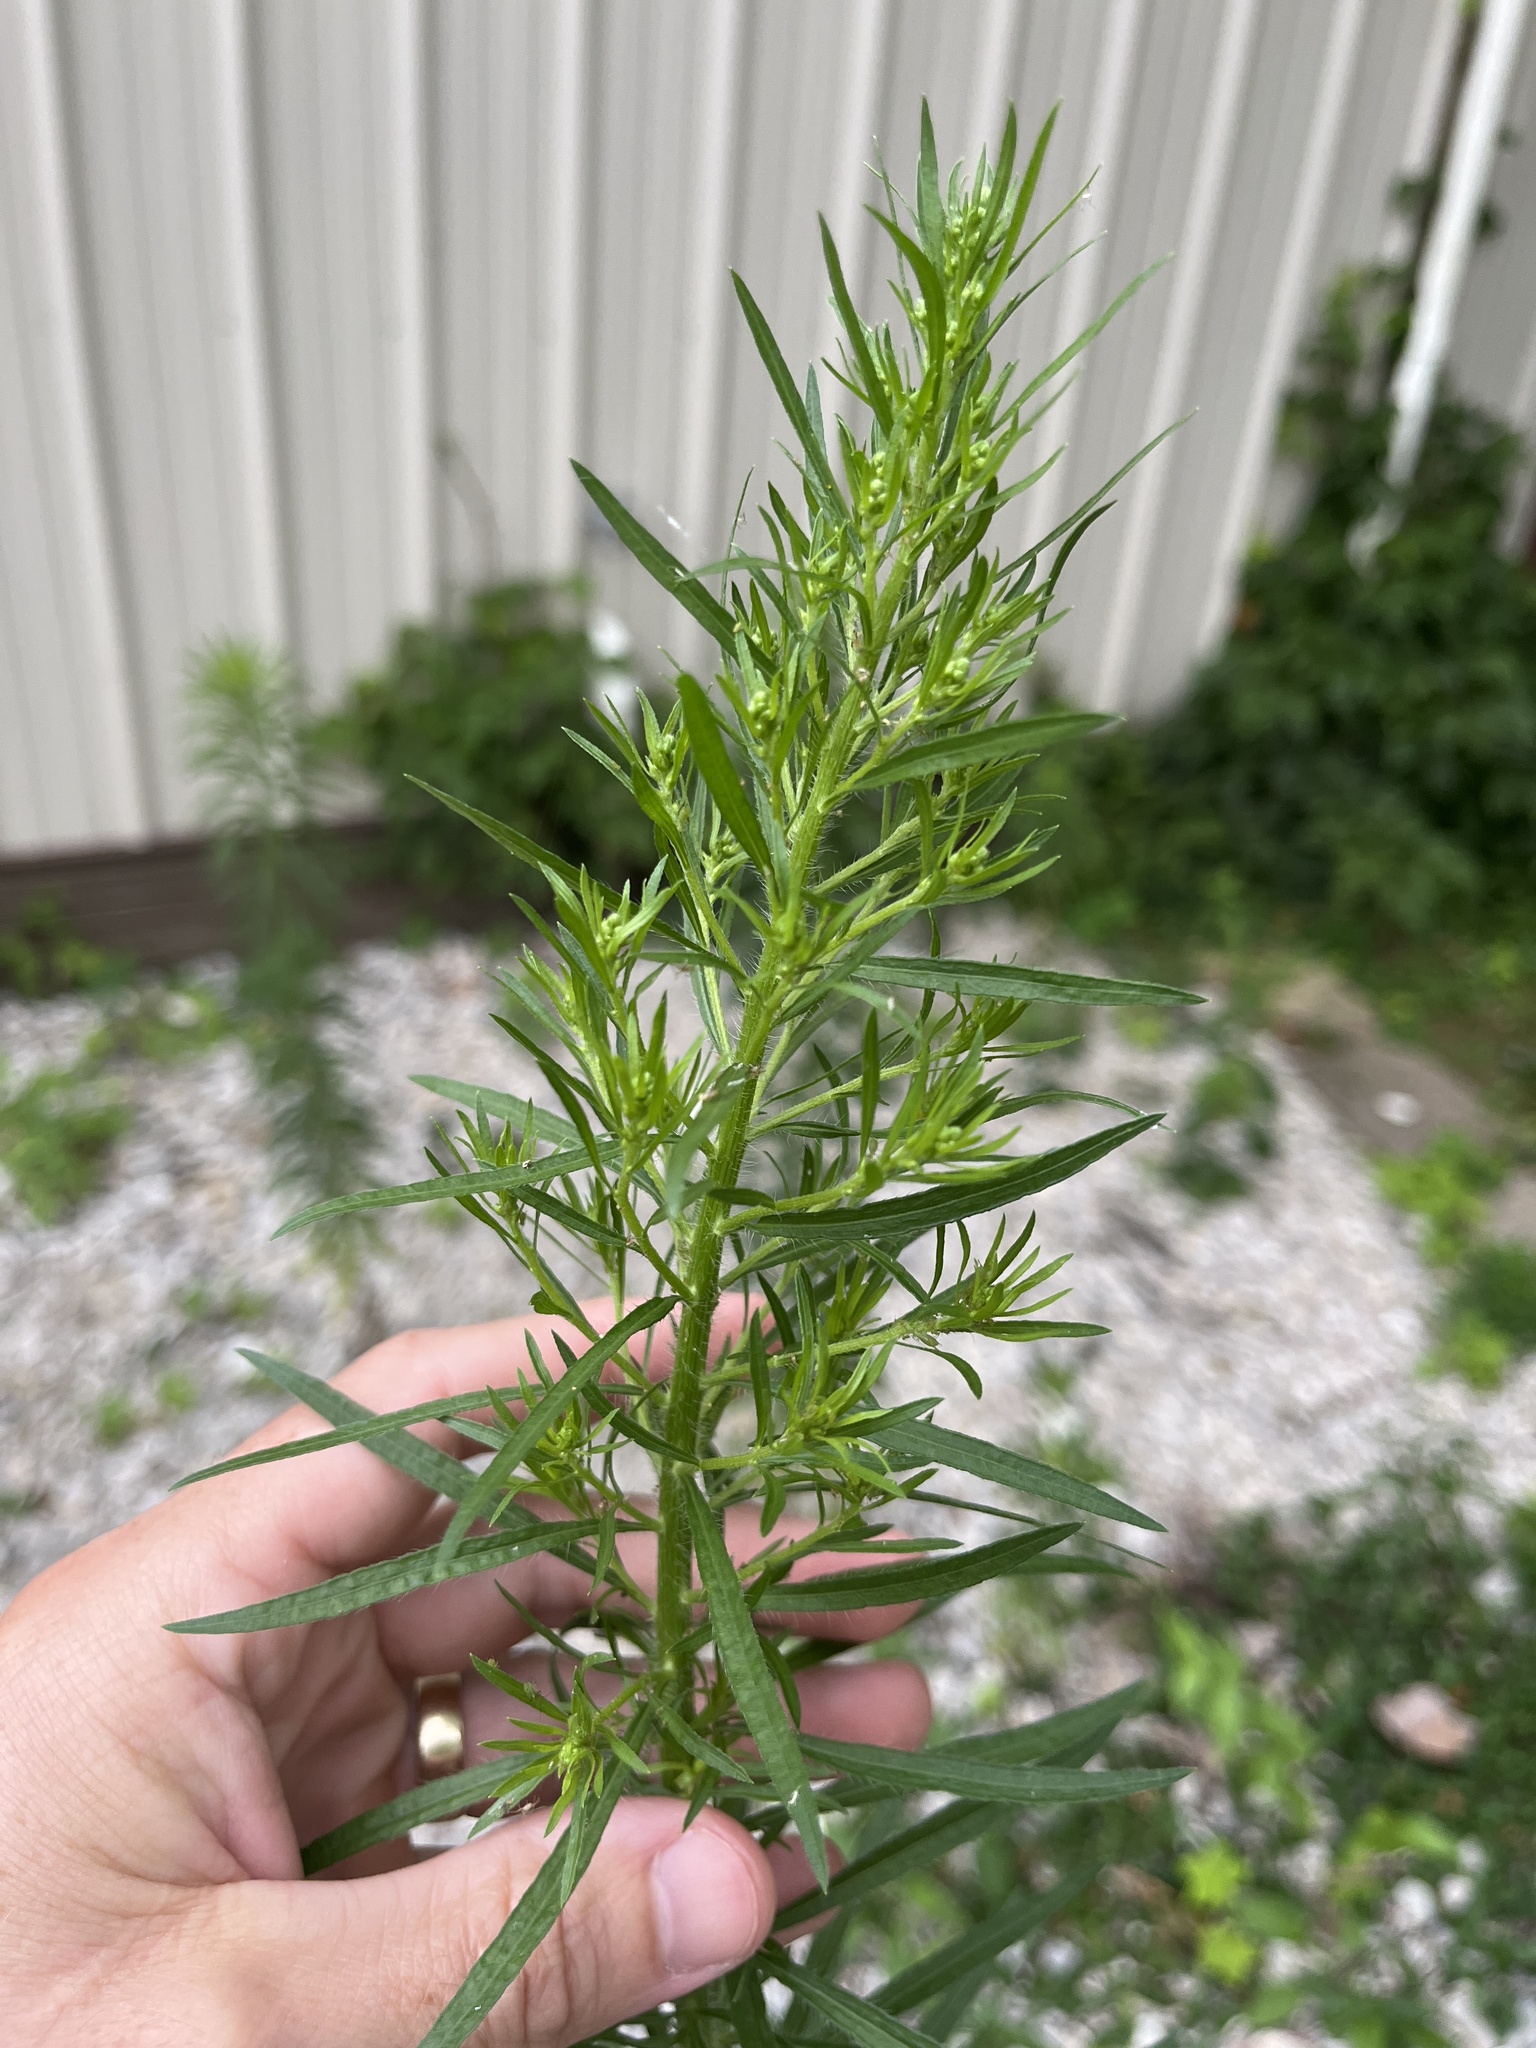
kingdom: Plantae
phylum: Tracheophyta
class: Magnoliopsida
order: Asterales
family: Asteraceae
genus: Erigeron
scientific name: Erigeron canadensis
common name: Canadian fleabane
